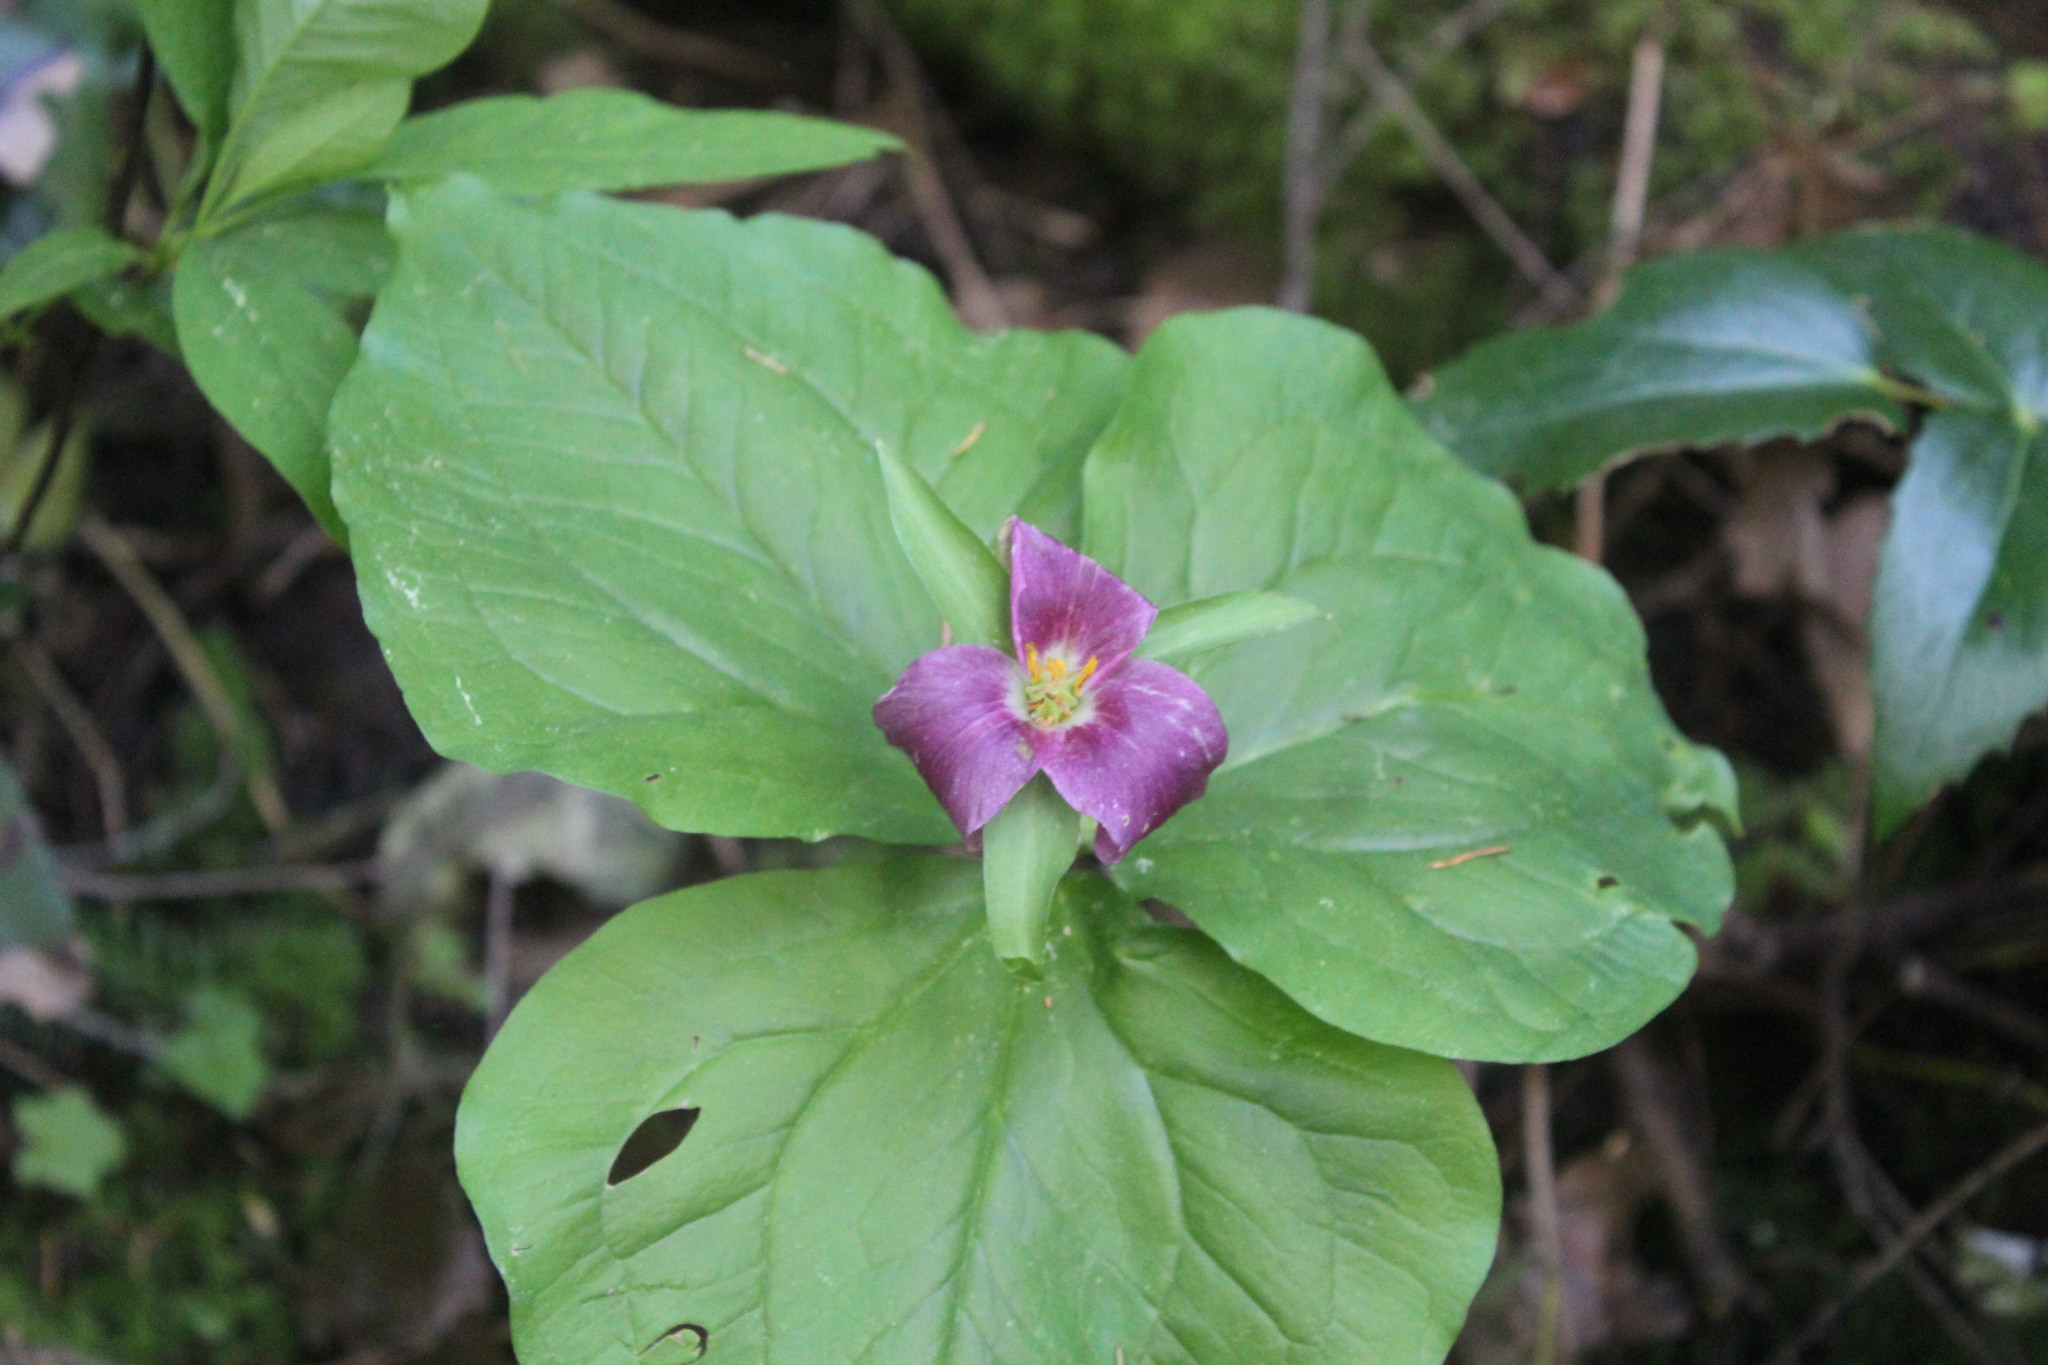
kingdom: Plantae
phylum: Tracheophyta
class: Liliopsida
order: Liliales
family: Melanthiaceae
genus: Trillium
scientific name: Trillium ovatum
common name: Pacific trillium
